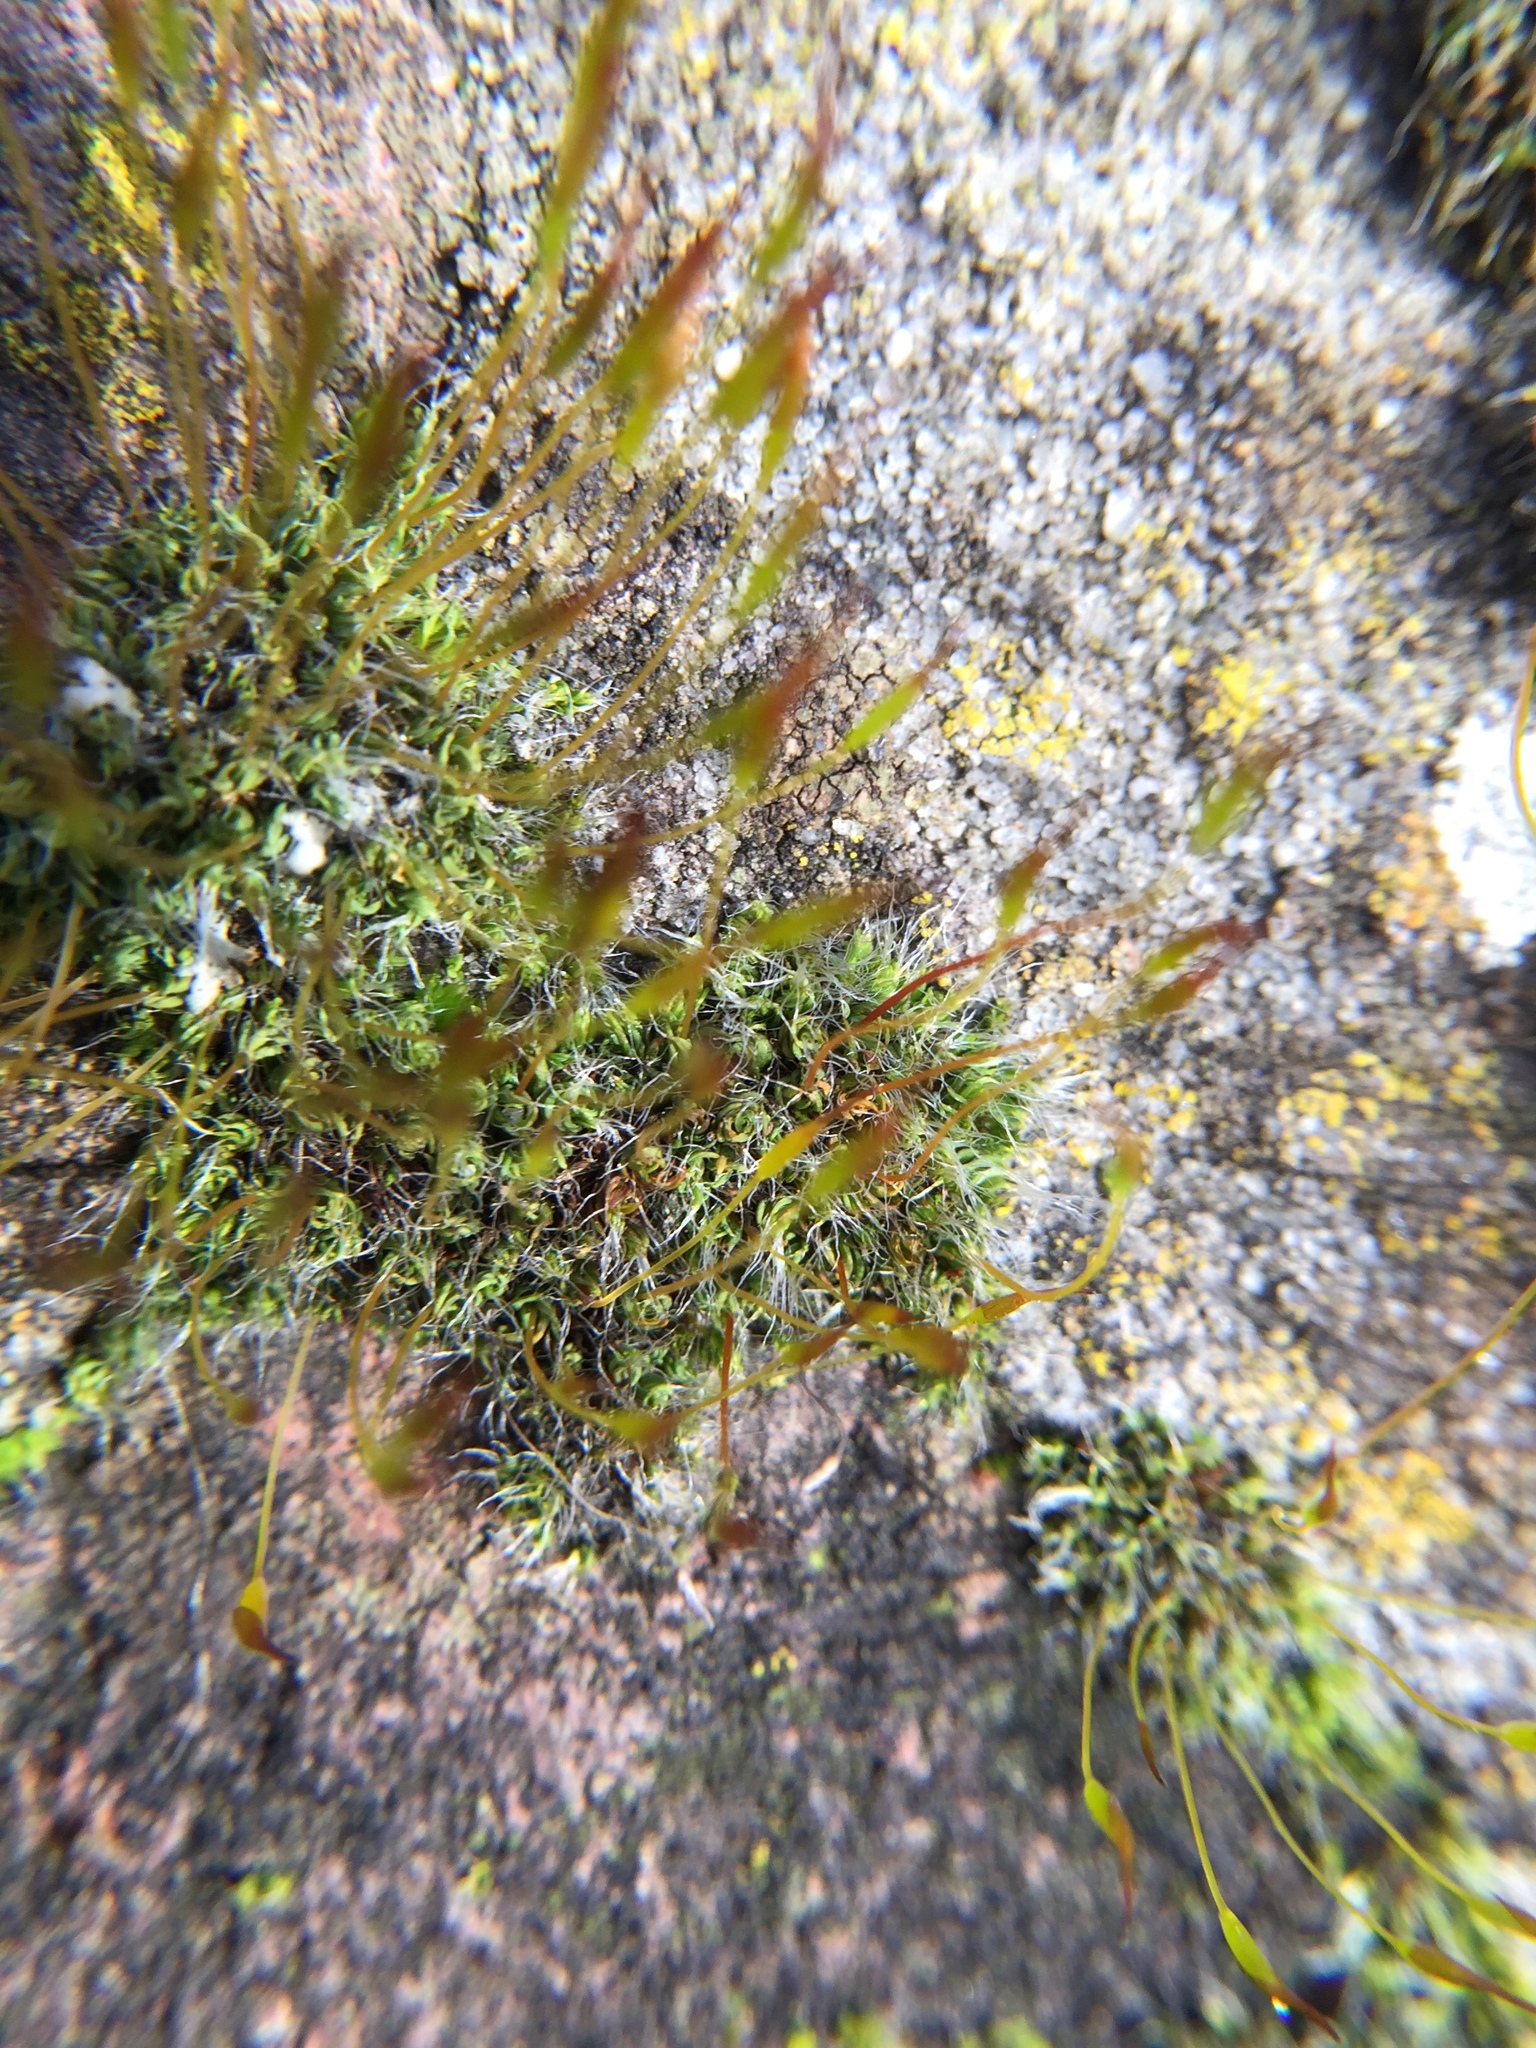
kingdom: Plantae
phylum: Bryophyta
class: Bryopsida
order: Pottiales
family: Pottiaceae
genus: Tortula
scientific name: Tortula muralis
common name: Wall screw-moss
